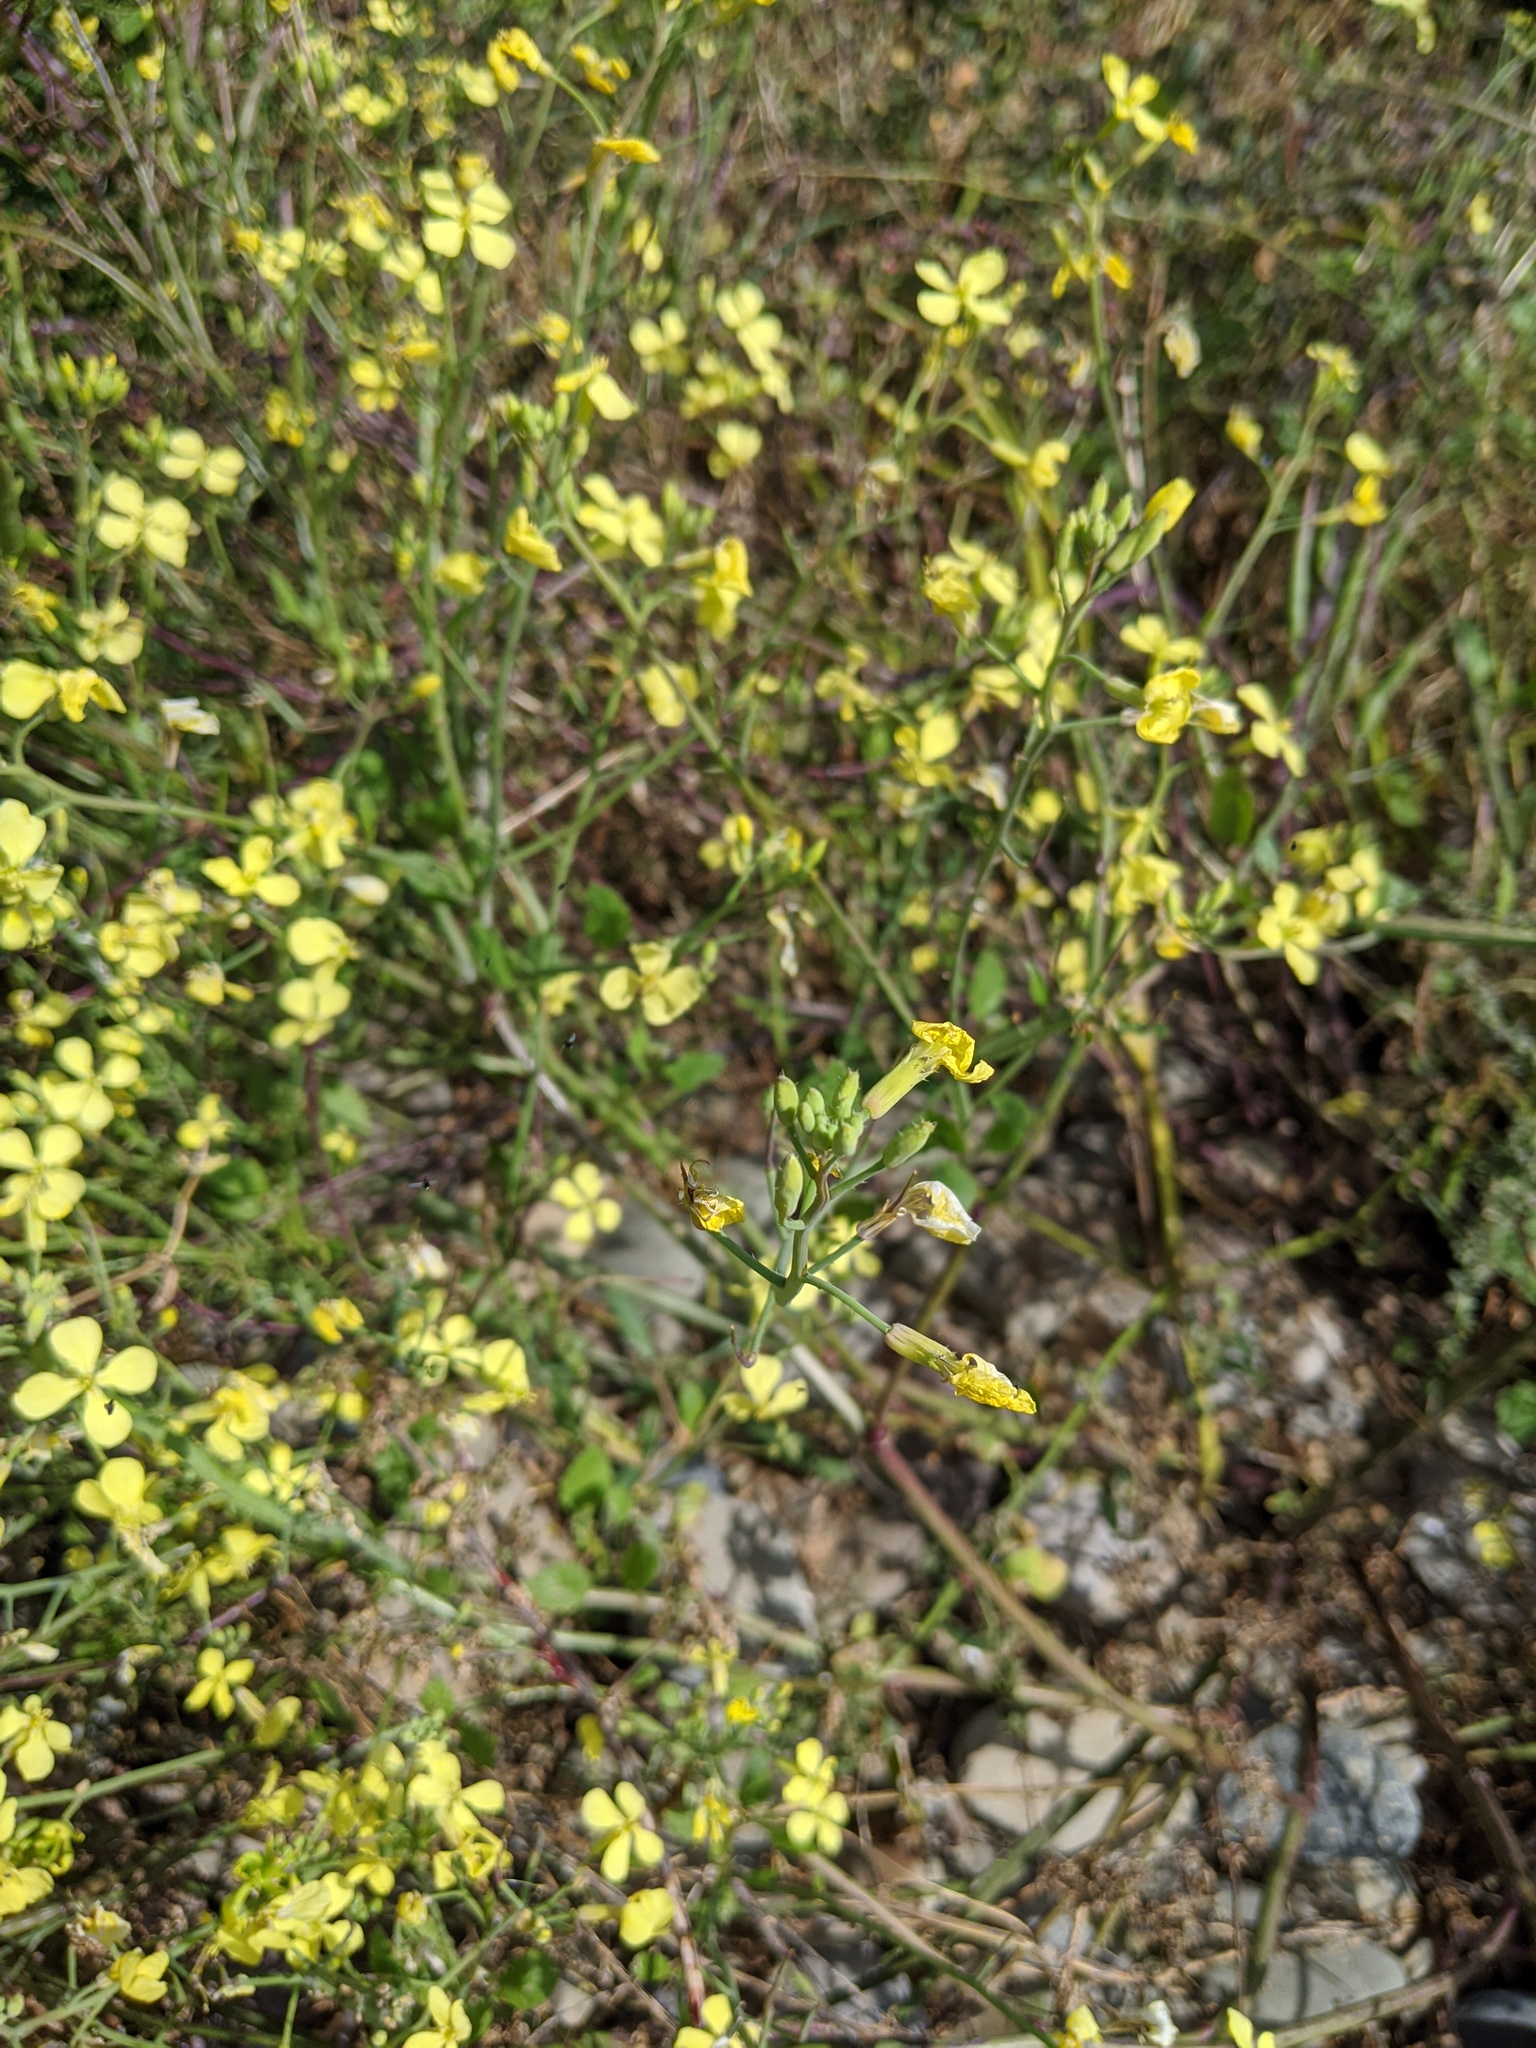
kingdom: Plantae
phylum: Tracheophyta
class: Magnoliopsida
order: Brassicales
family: Brassicaceae
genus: Raphanus
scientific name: Raphanus raphanistrum
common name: Wild radish
